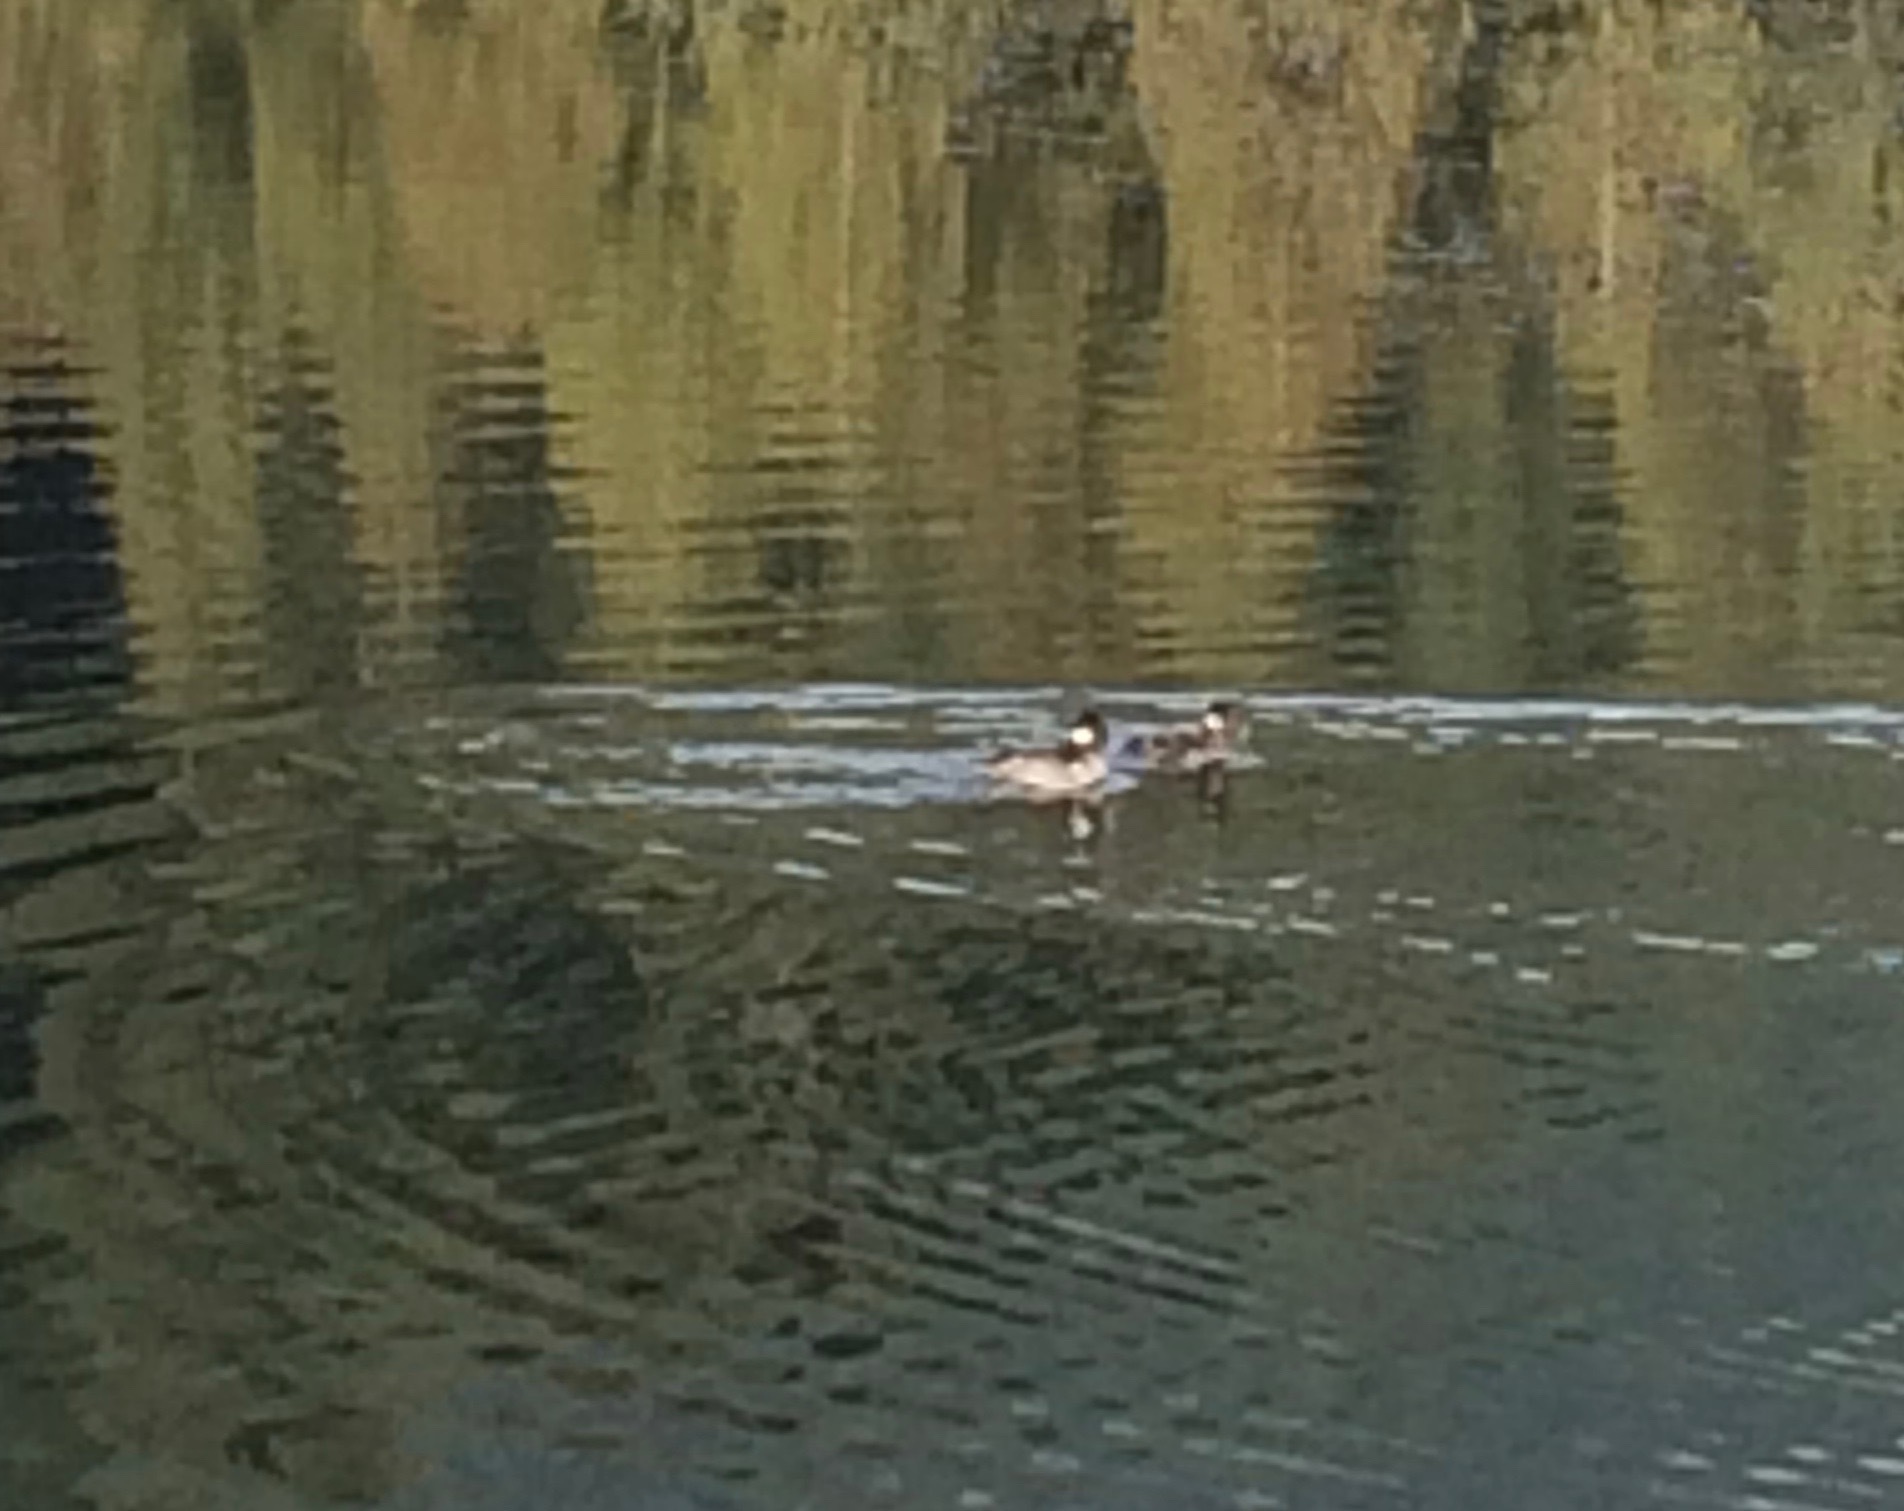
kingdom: Animalia
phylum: Chordata
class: Aves
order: Anseriformes
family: Anatidae
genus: Bucephala
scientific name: Bucephala albeola
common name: Bufflehead
